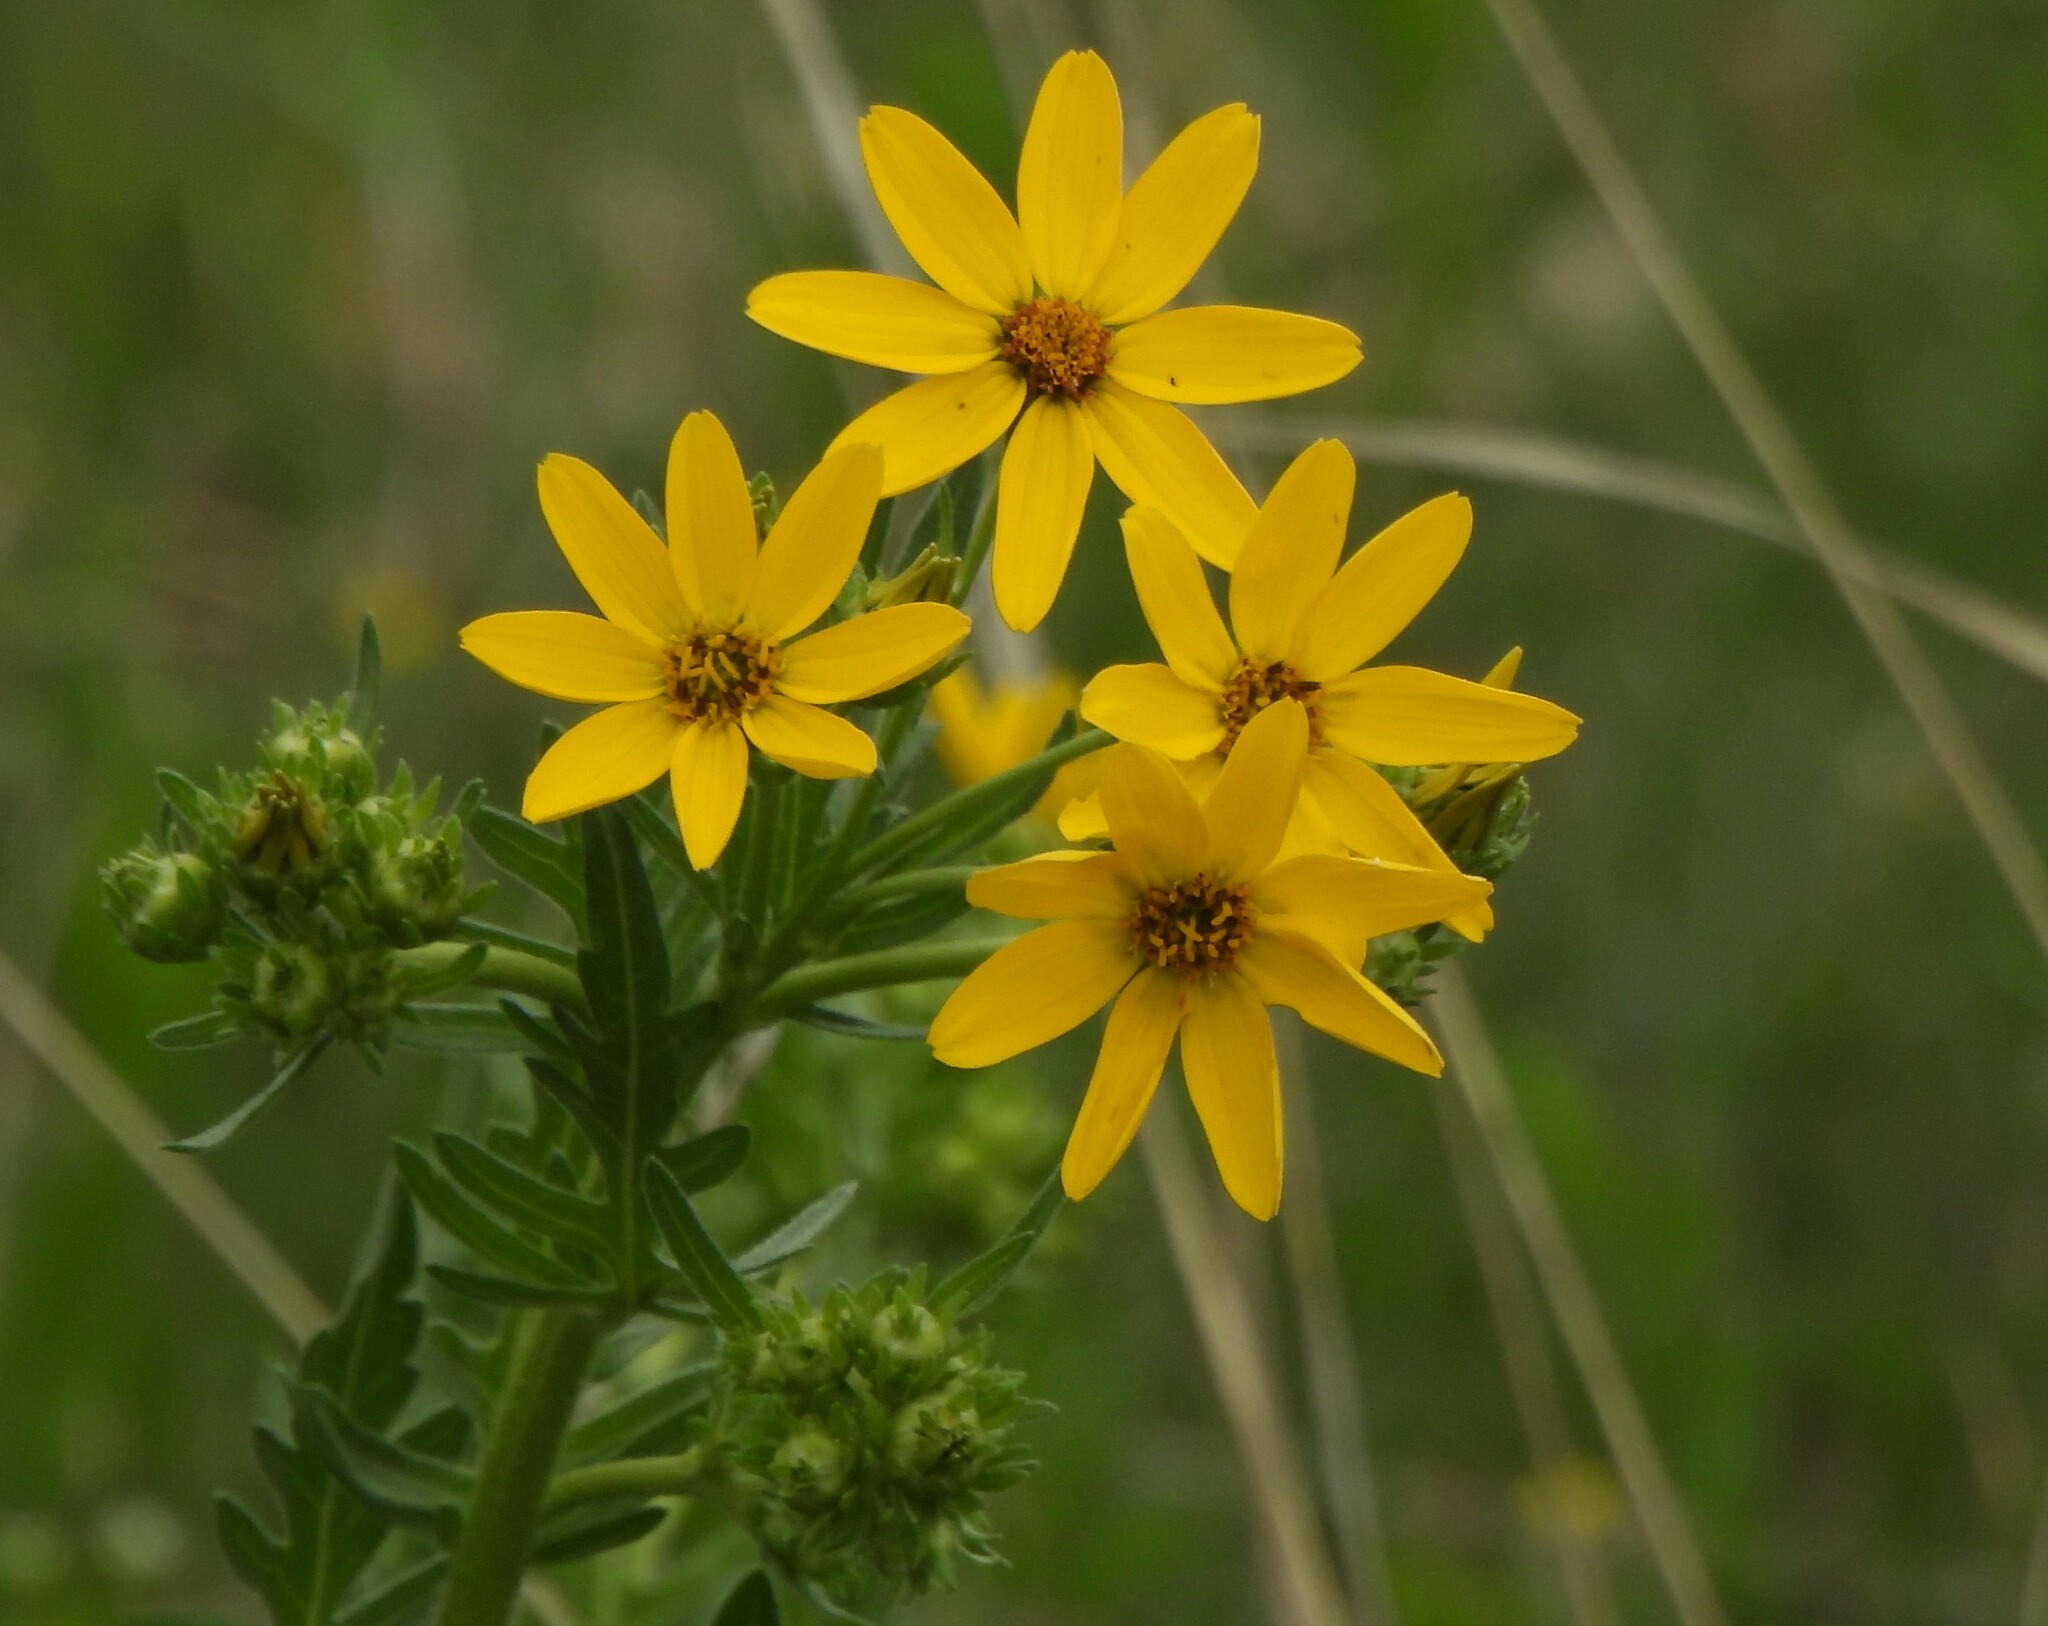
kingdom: Plantae
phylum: Tracheophyta
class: Magnoliopsida
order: Asterales
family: Asteraceae
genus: Engelmannia
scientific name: Engelmannia peristenia
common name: Engelmann's daisy
